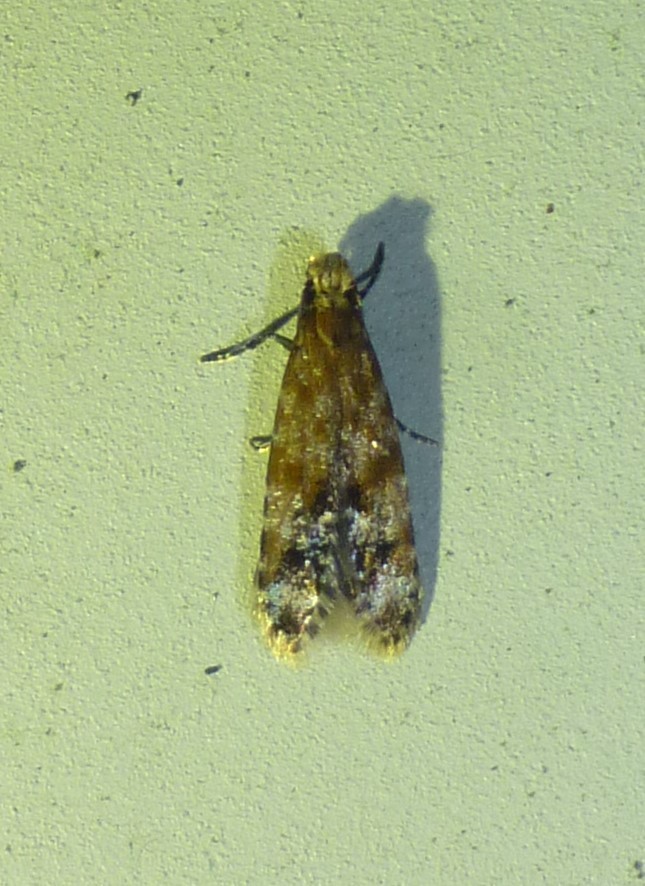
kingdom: Animalia
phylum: Arthropoda
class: Insecta
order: Lepidoptera
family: Meessiidae
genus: Homosetia
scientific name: Homosetia costisignella
